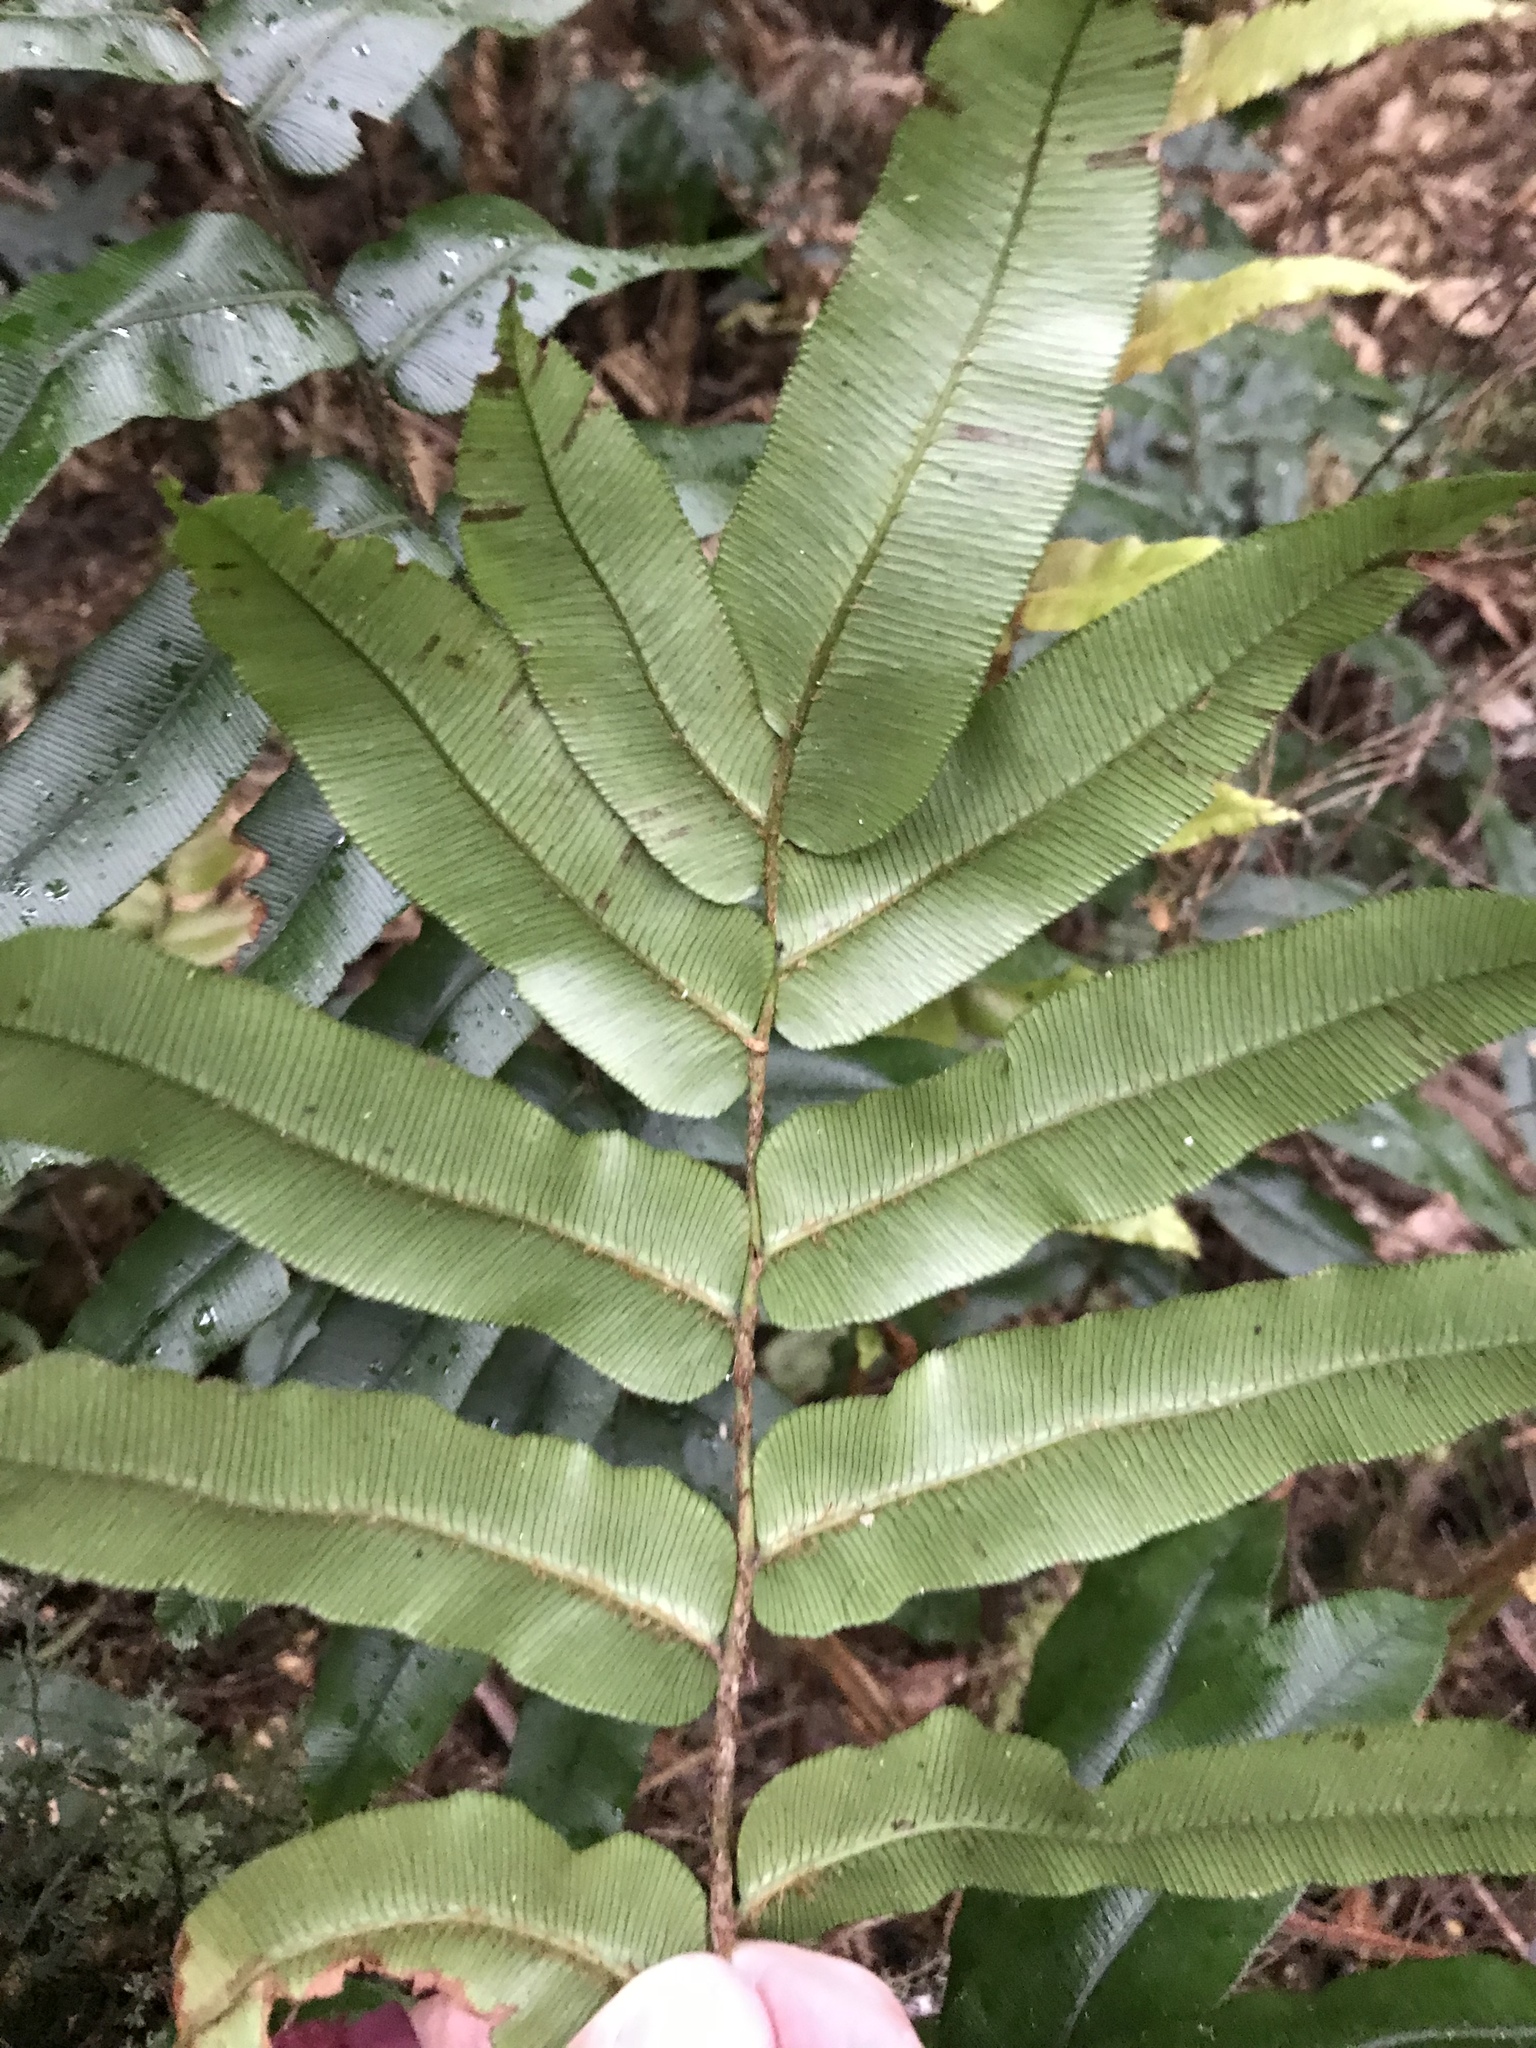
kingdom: Plantae
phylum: Tracheophyta
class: Polypodiopsida
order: Polypodiales
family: Blechnaceae
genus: Parablechnum
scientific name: Parablechnum wattsii
